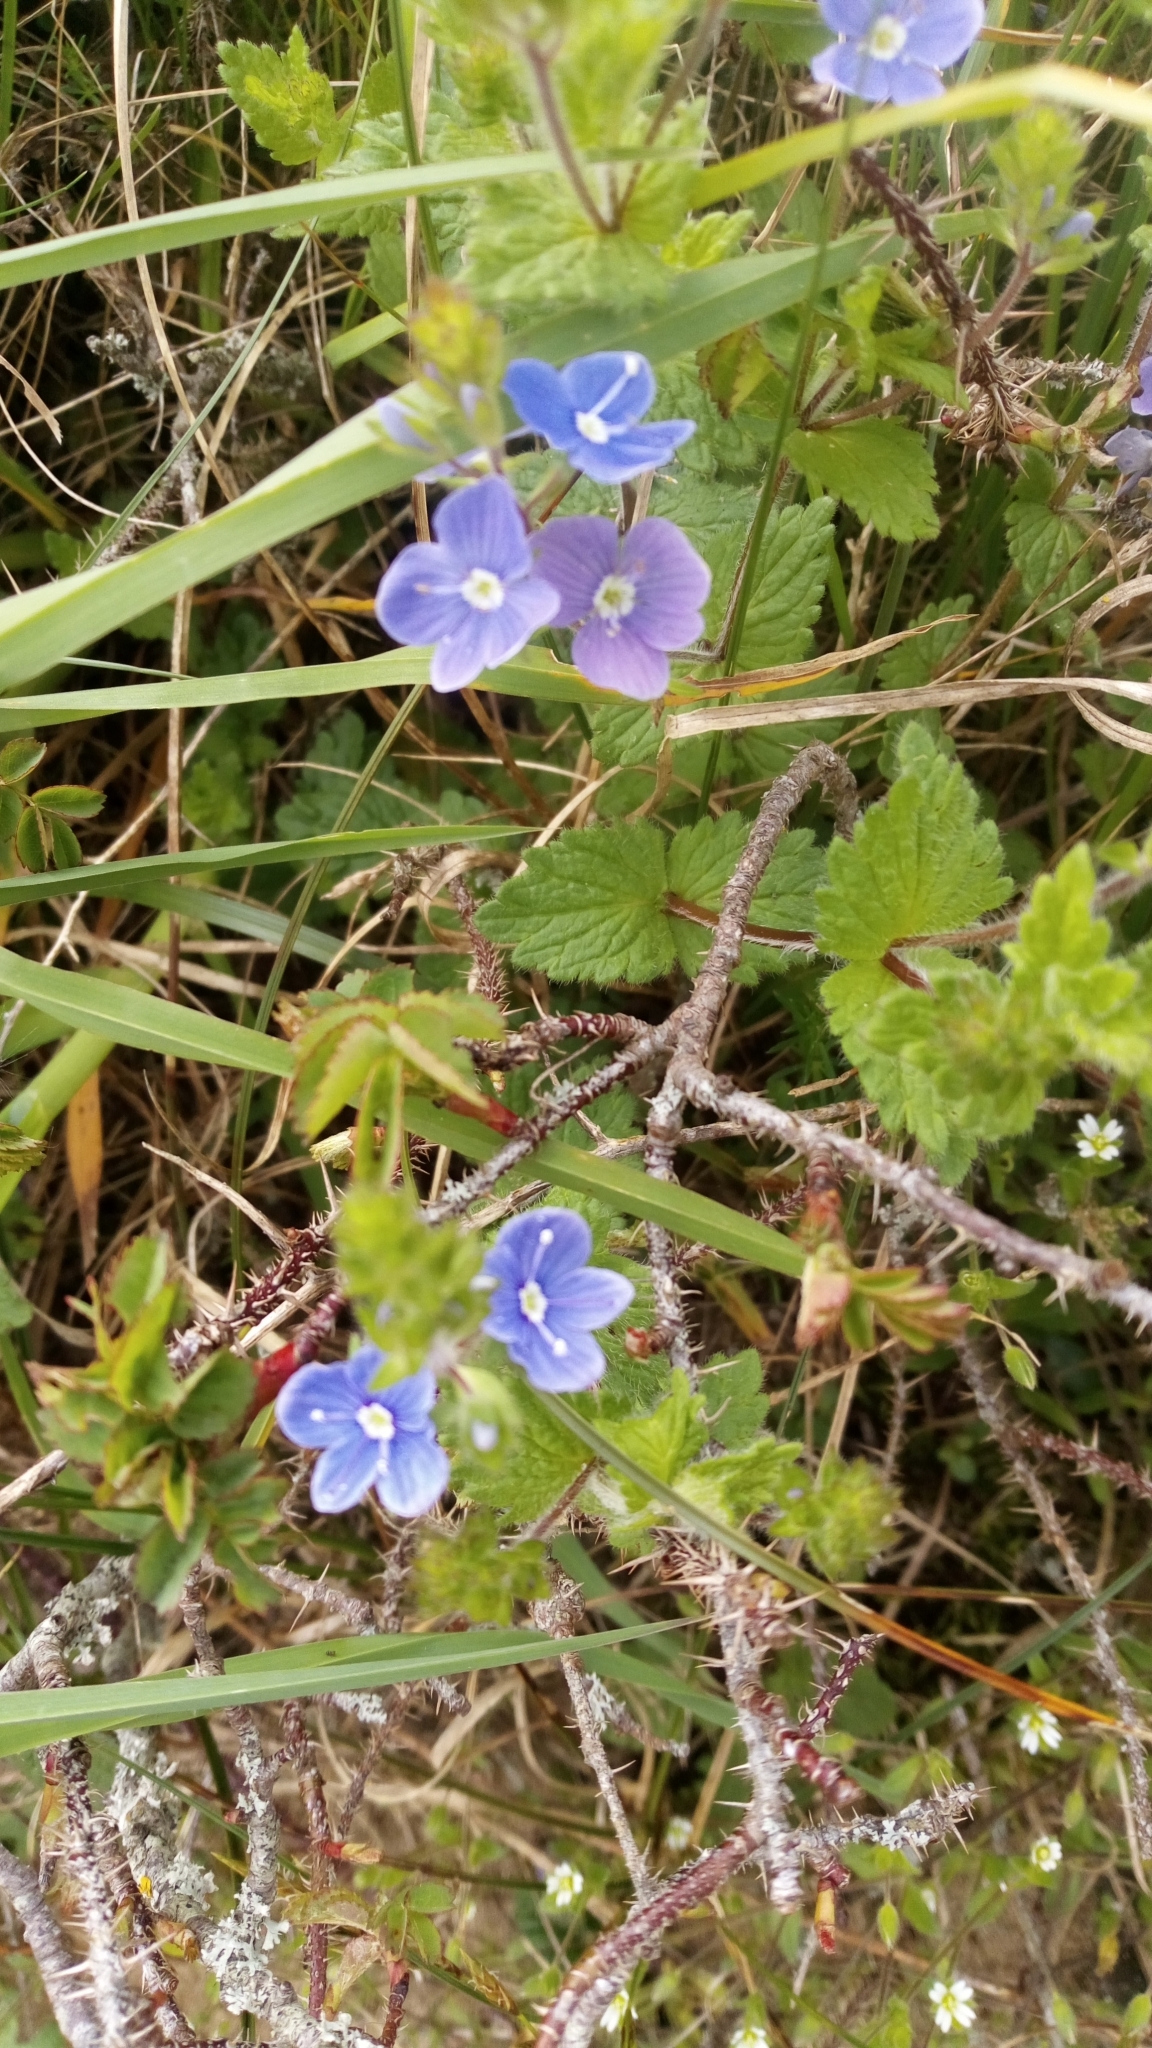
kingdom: Plantae
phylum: Tracheophyta
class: Magnoliopsida
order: Lamiales
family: Plantaginaceae
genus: Veronica
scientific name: Veronica chamaedrys
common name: Germander speedwell
